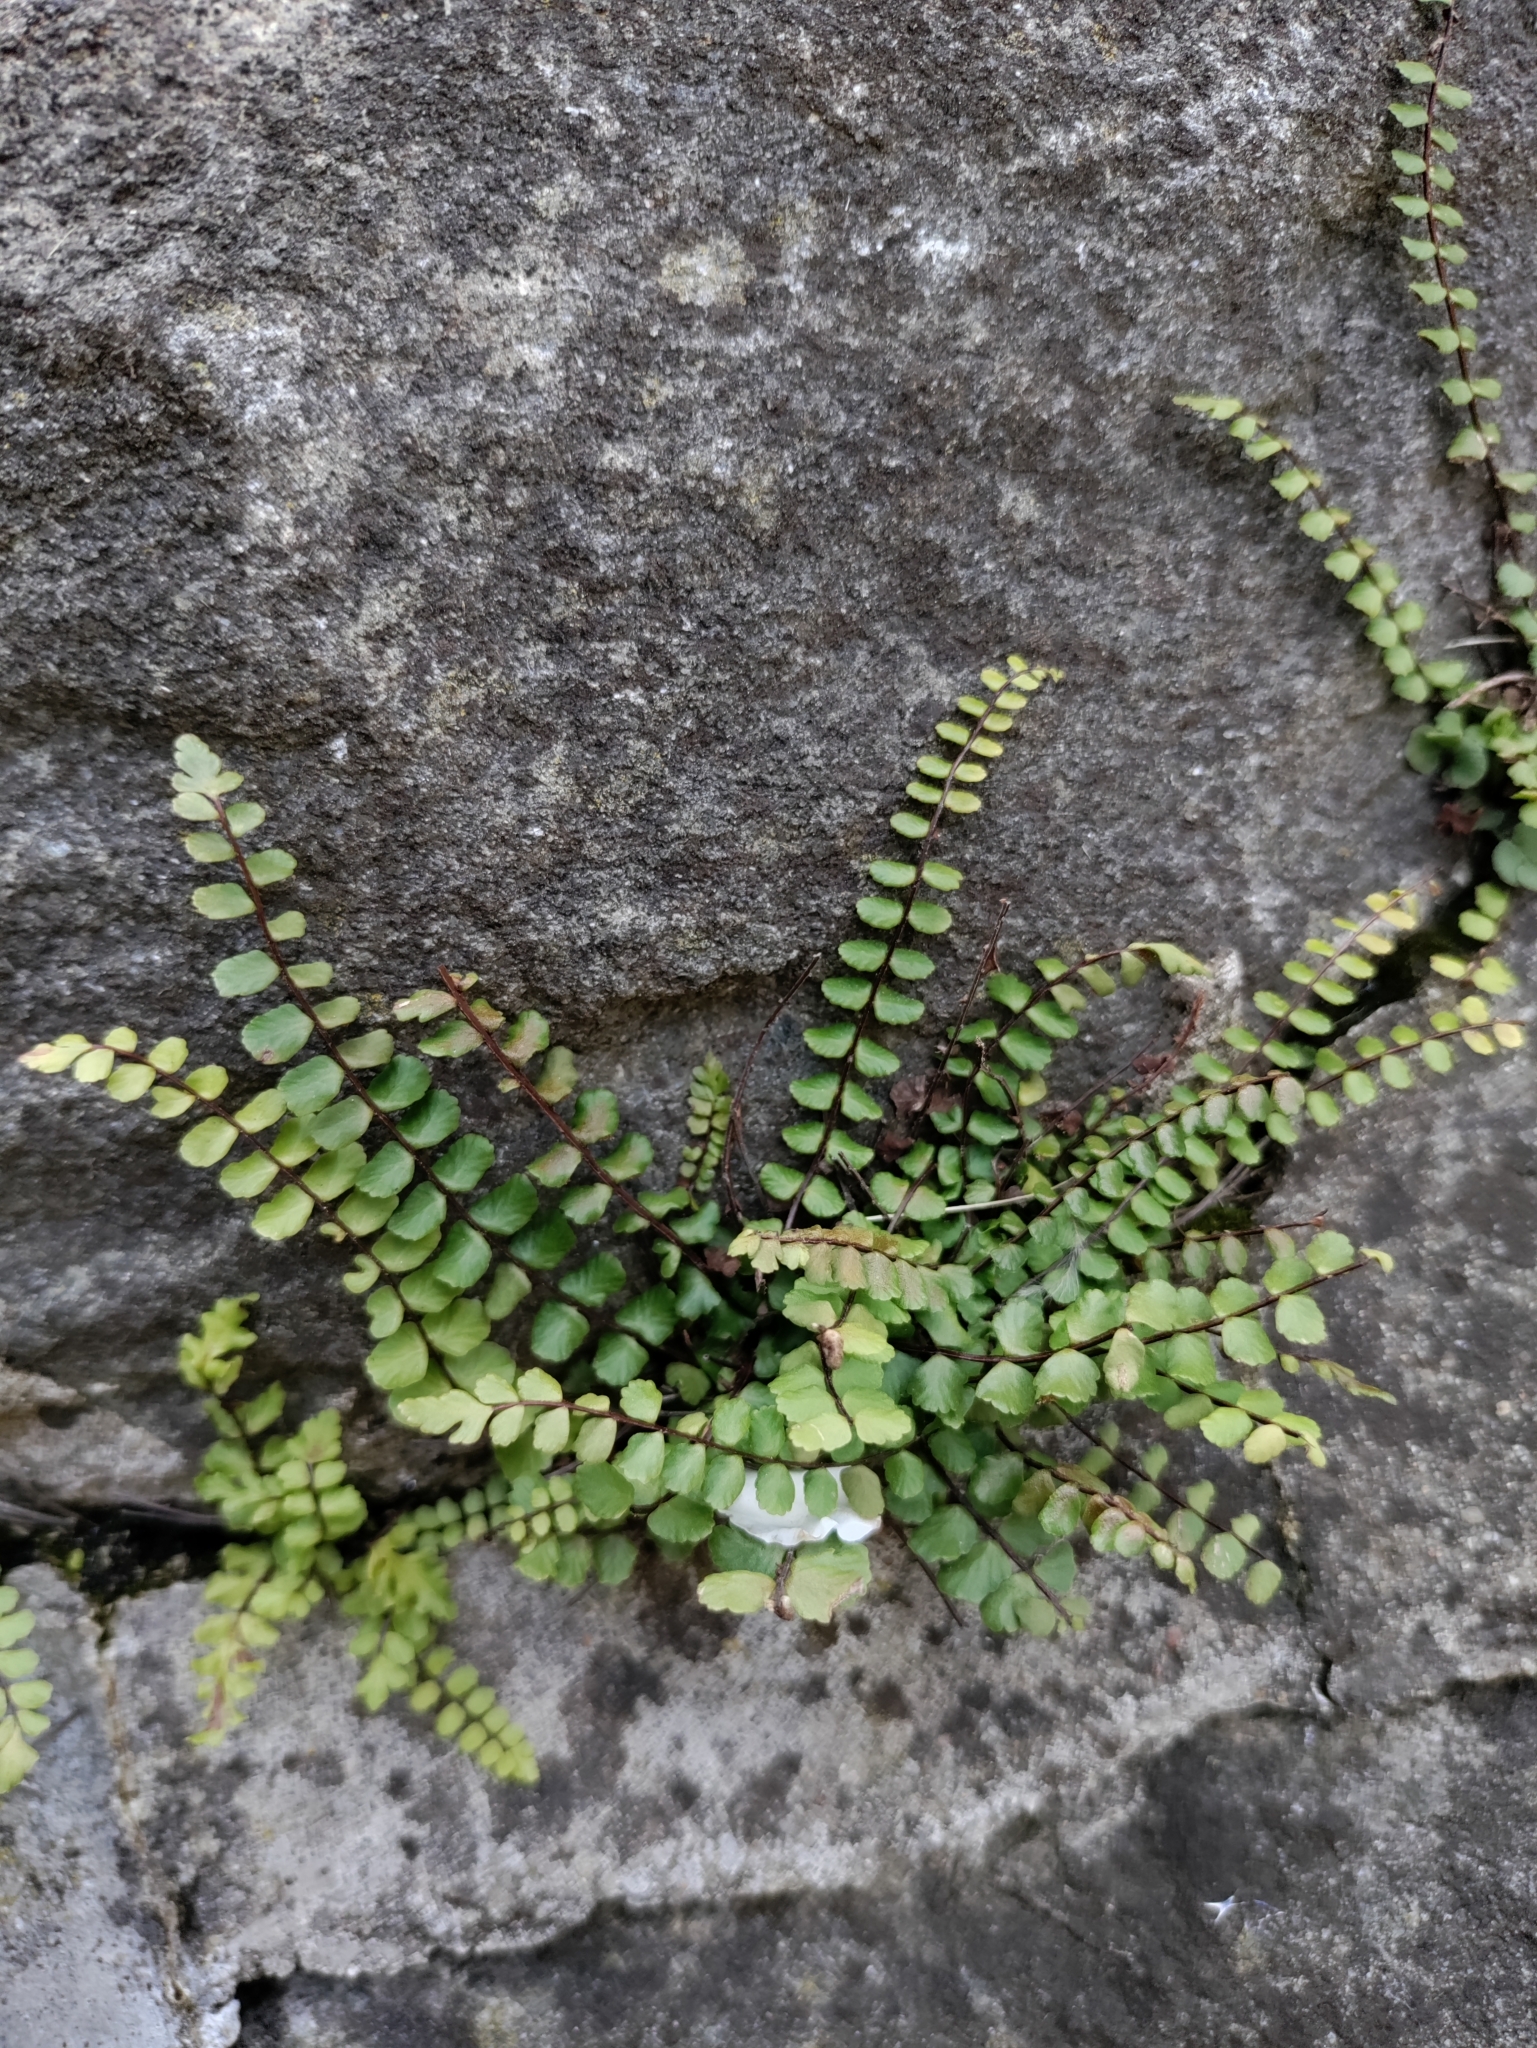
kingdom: Plantae
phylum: Tracheophyta
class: Polypodiopsida
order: Polypodiales
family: Aspleniaceae
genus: Asplenium
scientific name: Asplenium trichomanes
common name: Maidenhair spleenwort
